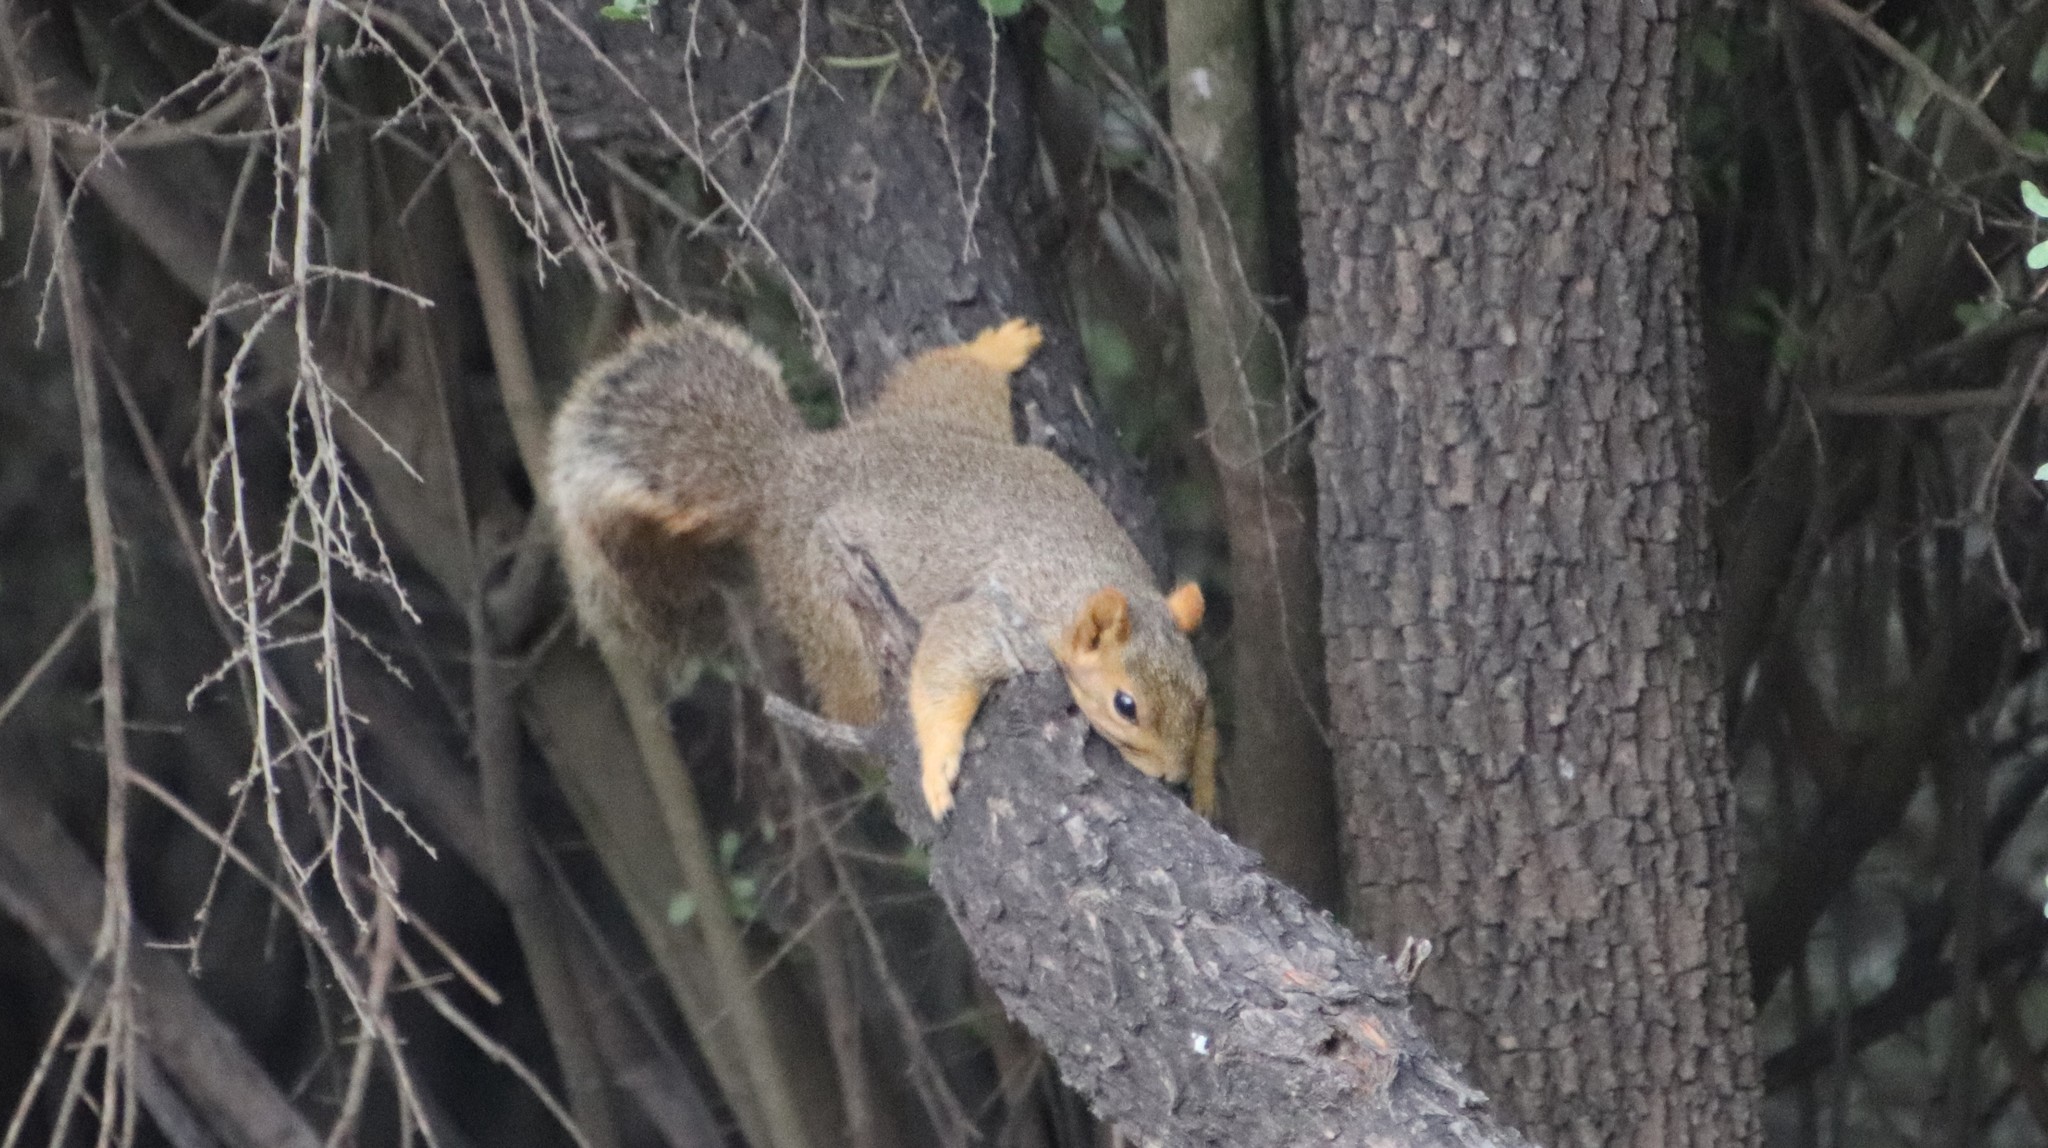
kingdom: Animalia
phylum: Chordata
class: Mammalia
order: Rodentia
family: Sciuridae
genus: Sciurus
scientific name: Sciurus niger
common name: Fox squirrel
